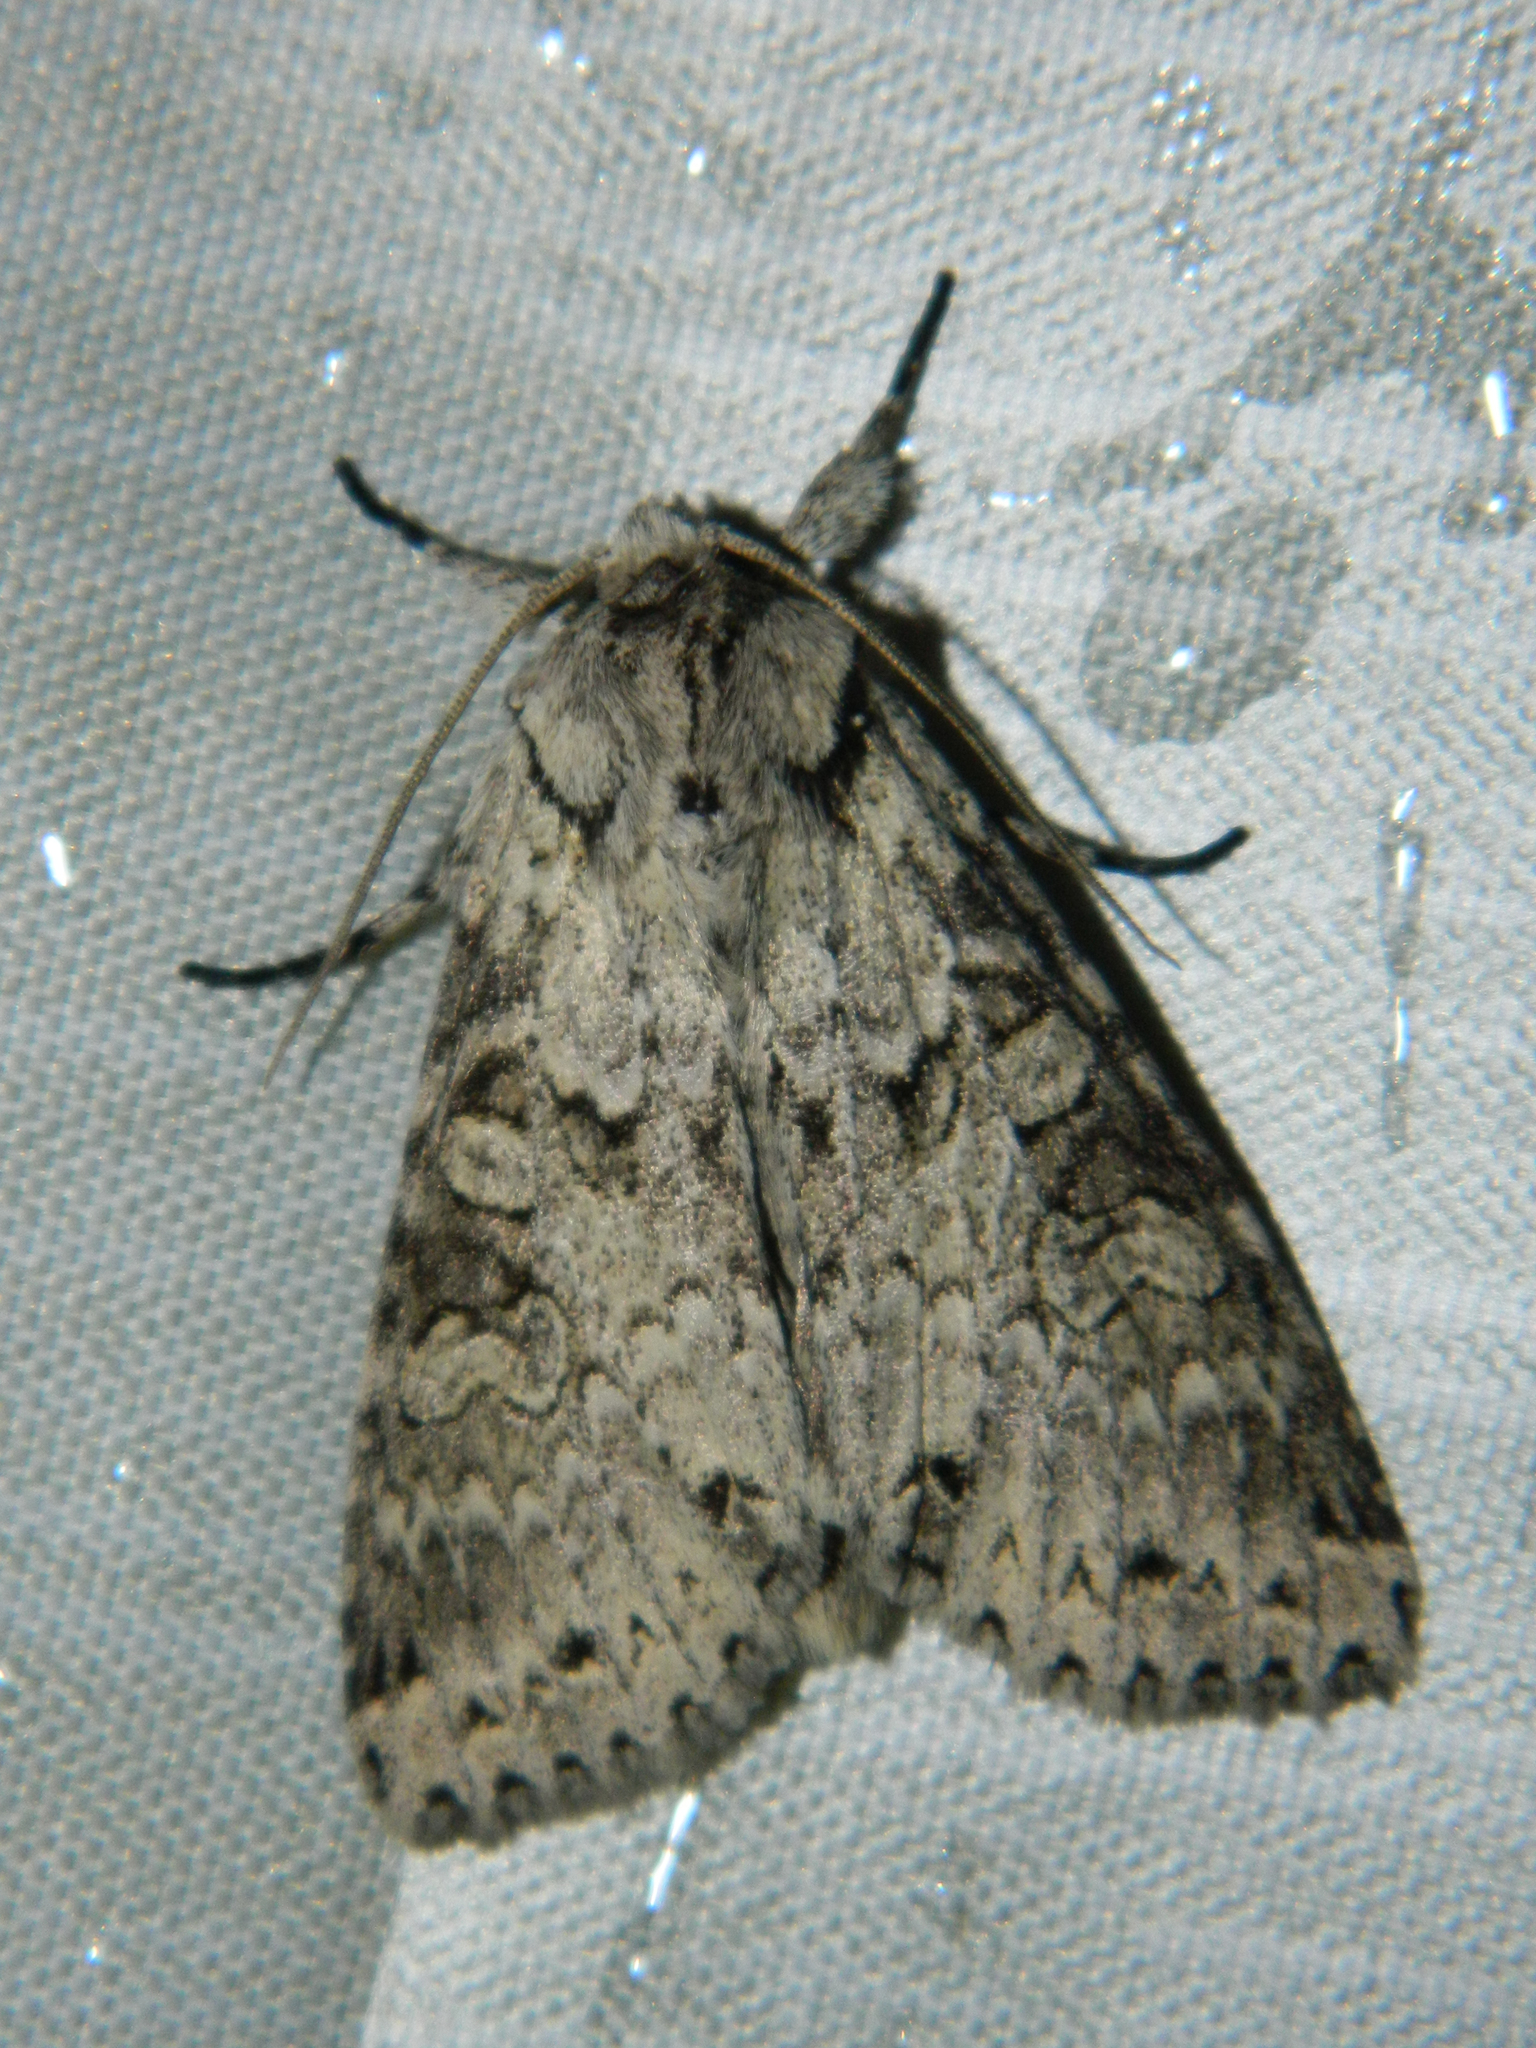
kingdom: Animalia
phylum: Arthropoda
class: Insecta
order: Lepidoptera
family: Noctuidae
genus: Polia
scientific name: Polia nimbosa
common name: Stormy arches
